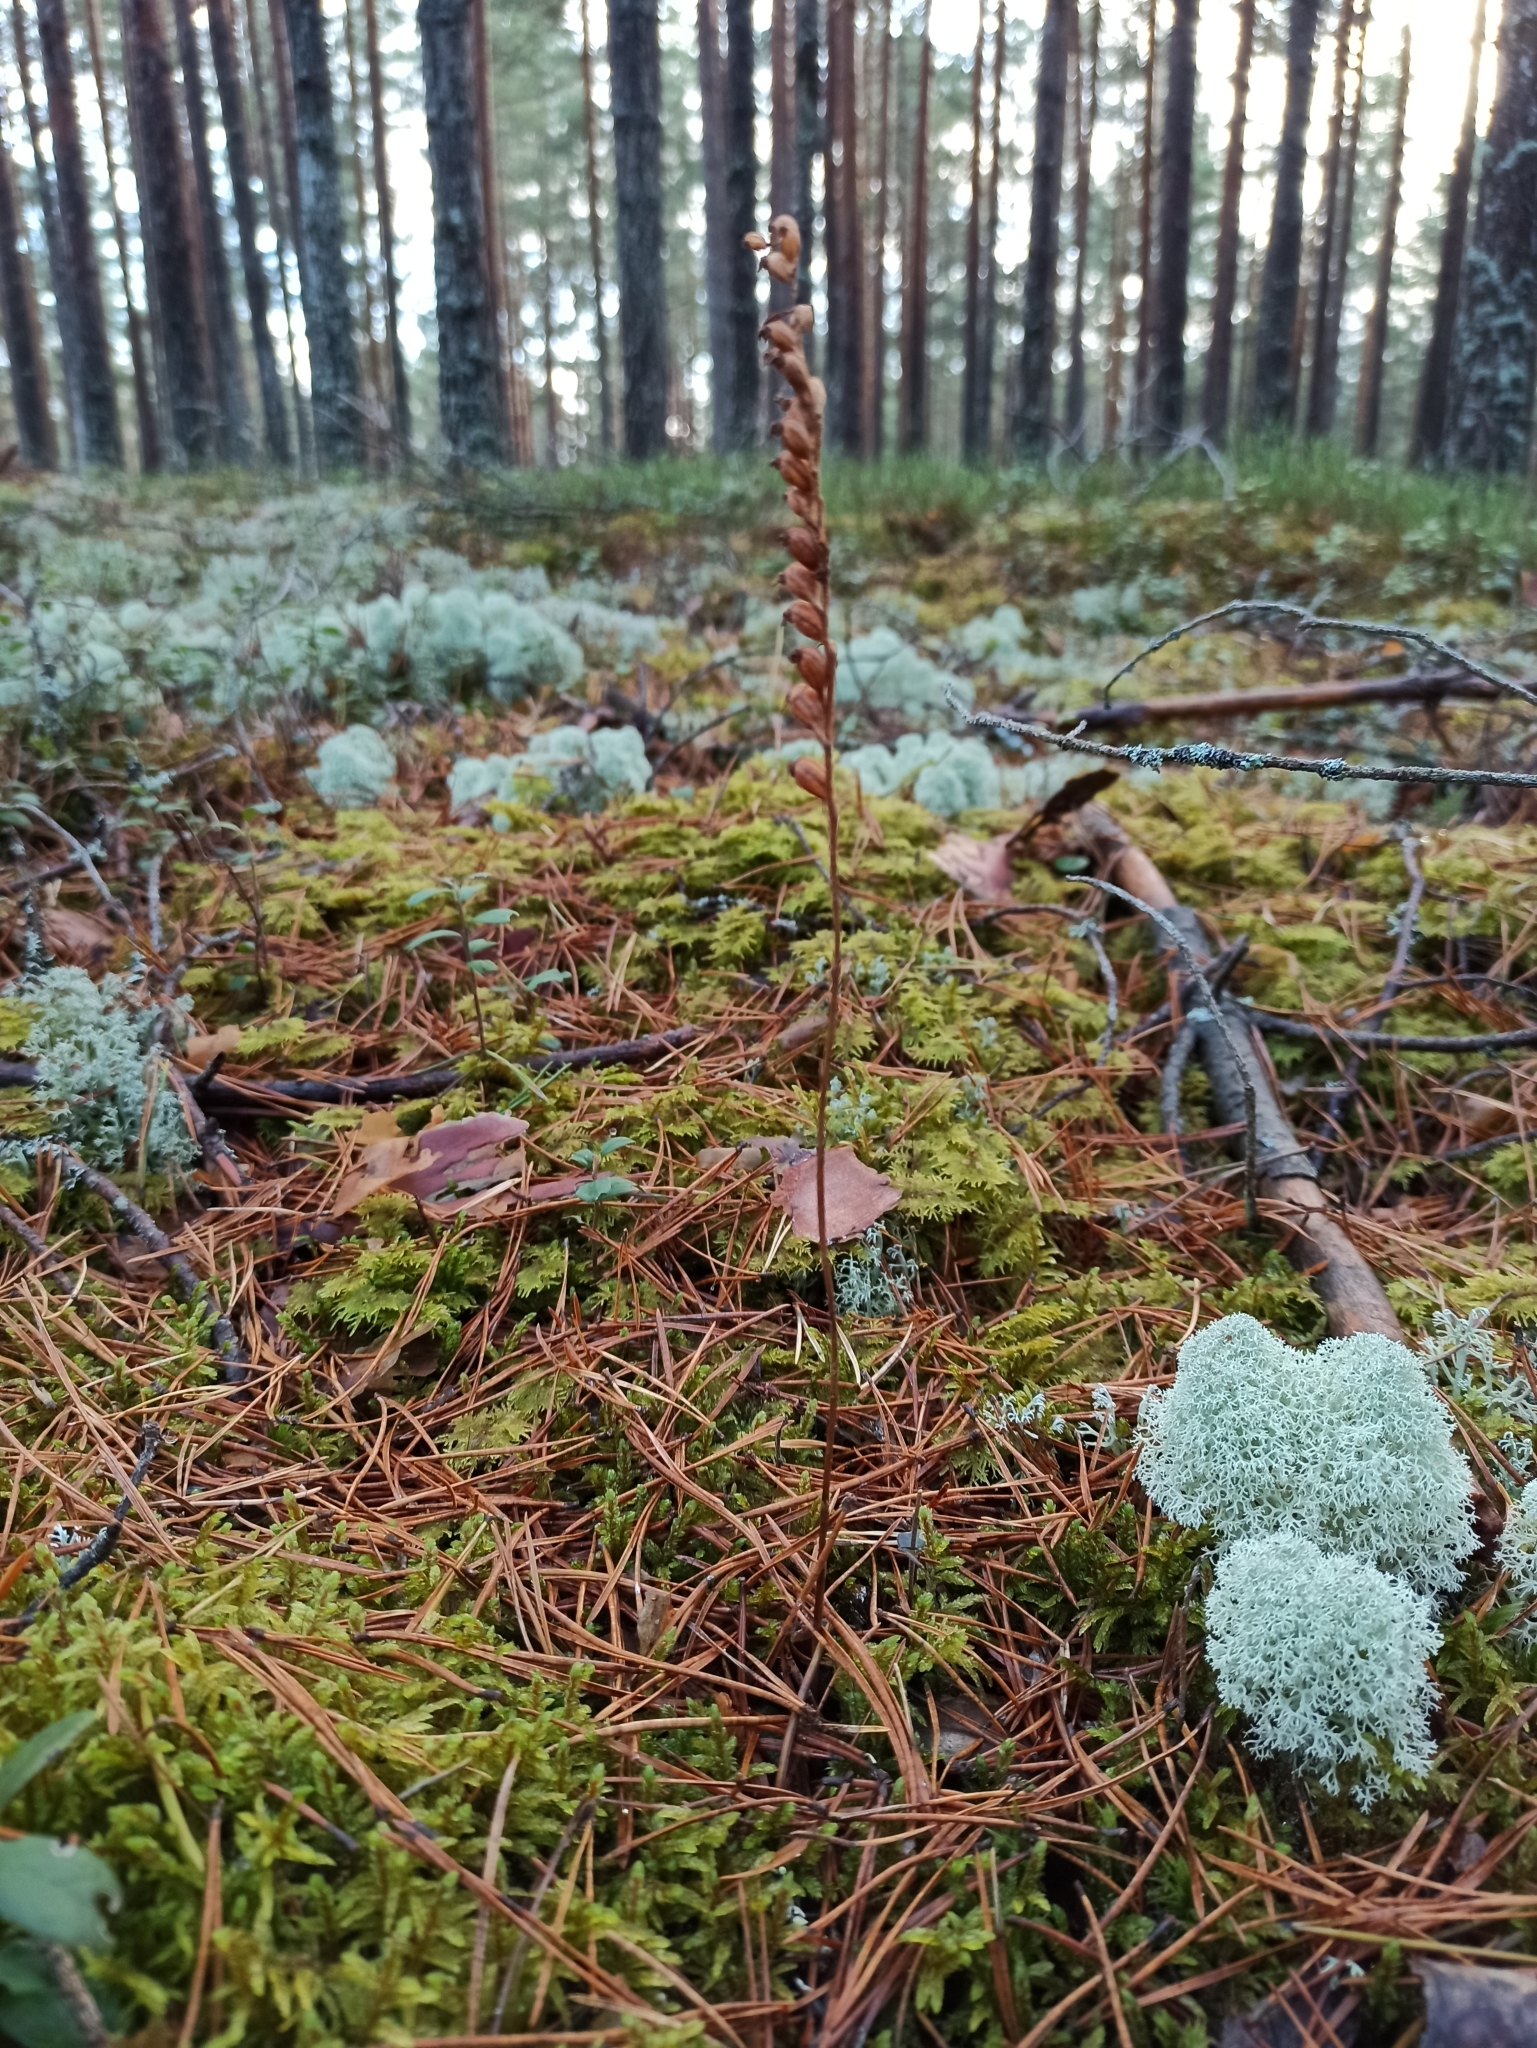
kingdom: Plantae
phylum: Tracheophyta
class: Liliopsida
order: Asparagales
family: Orchidaceae
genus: Goodyera
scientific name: Goodyera repens
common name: Creeping lady's-tresses
